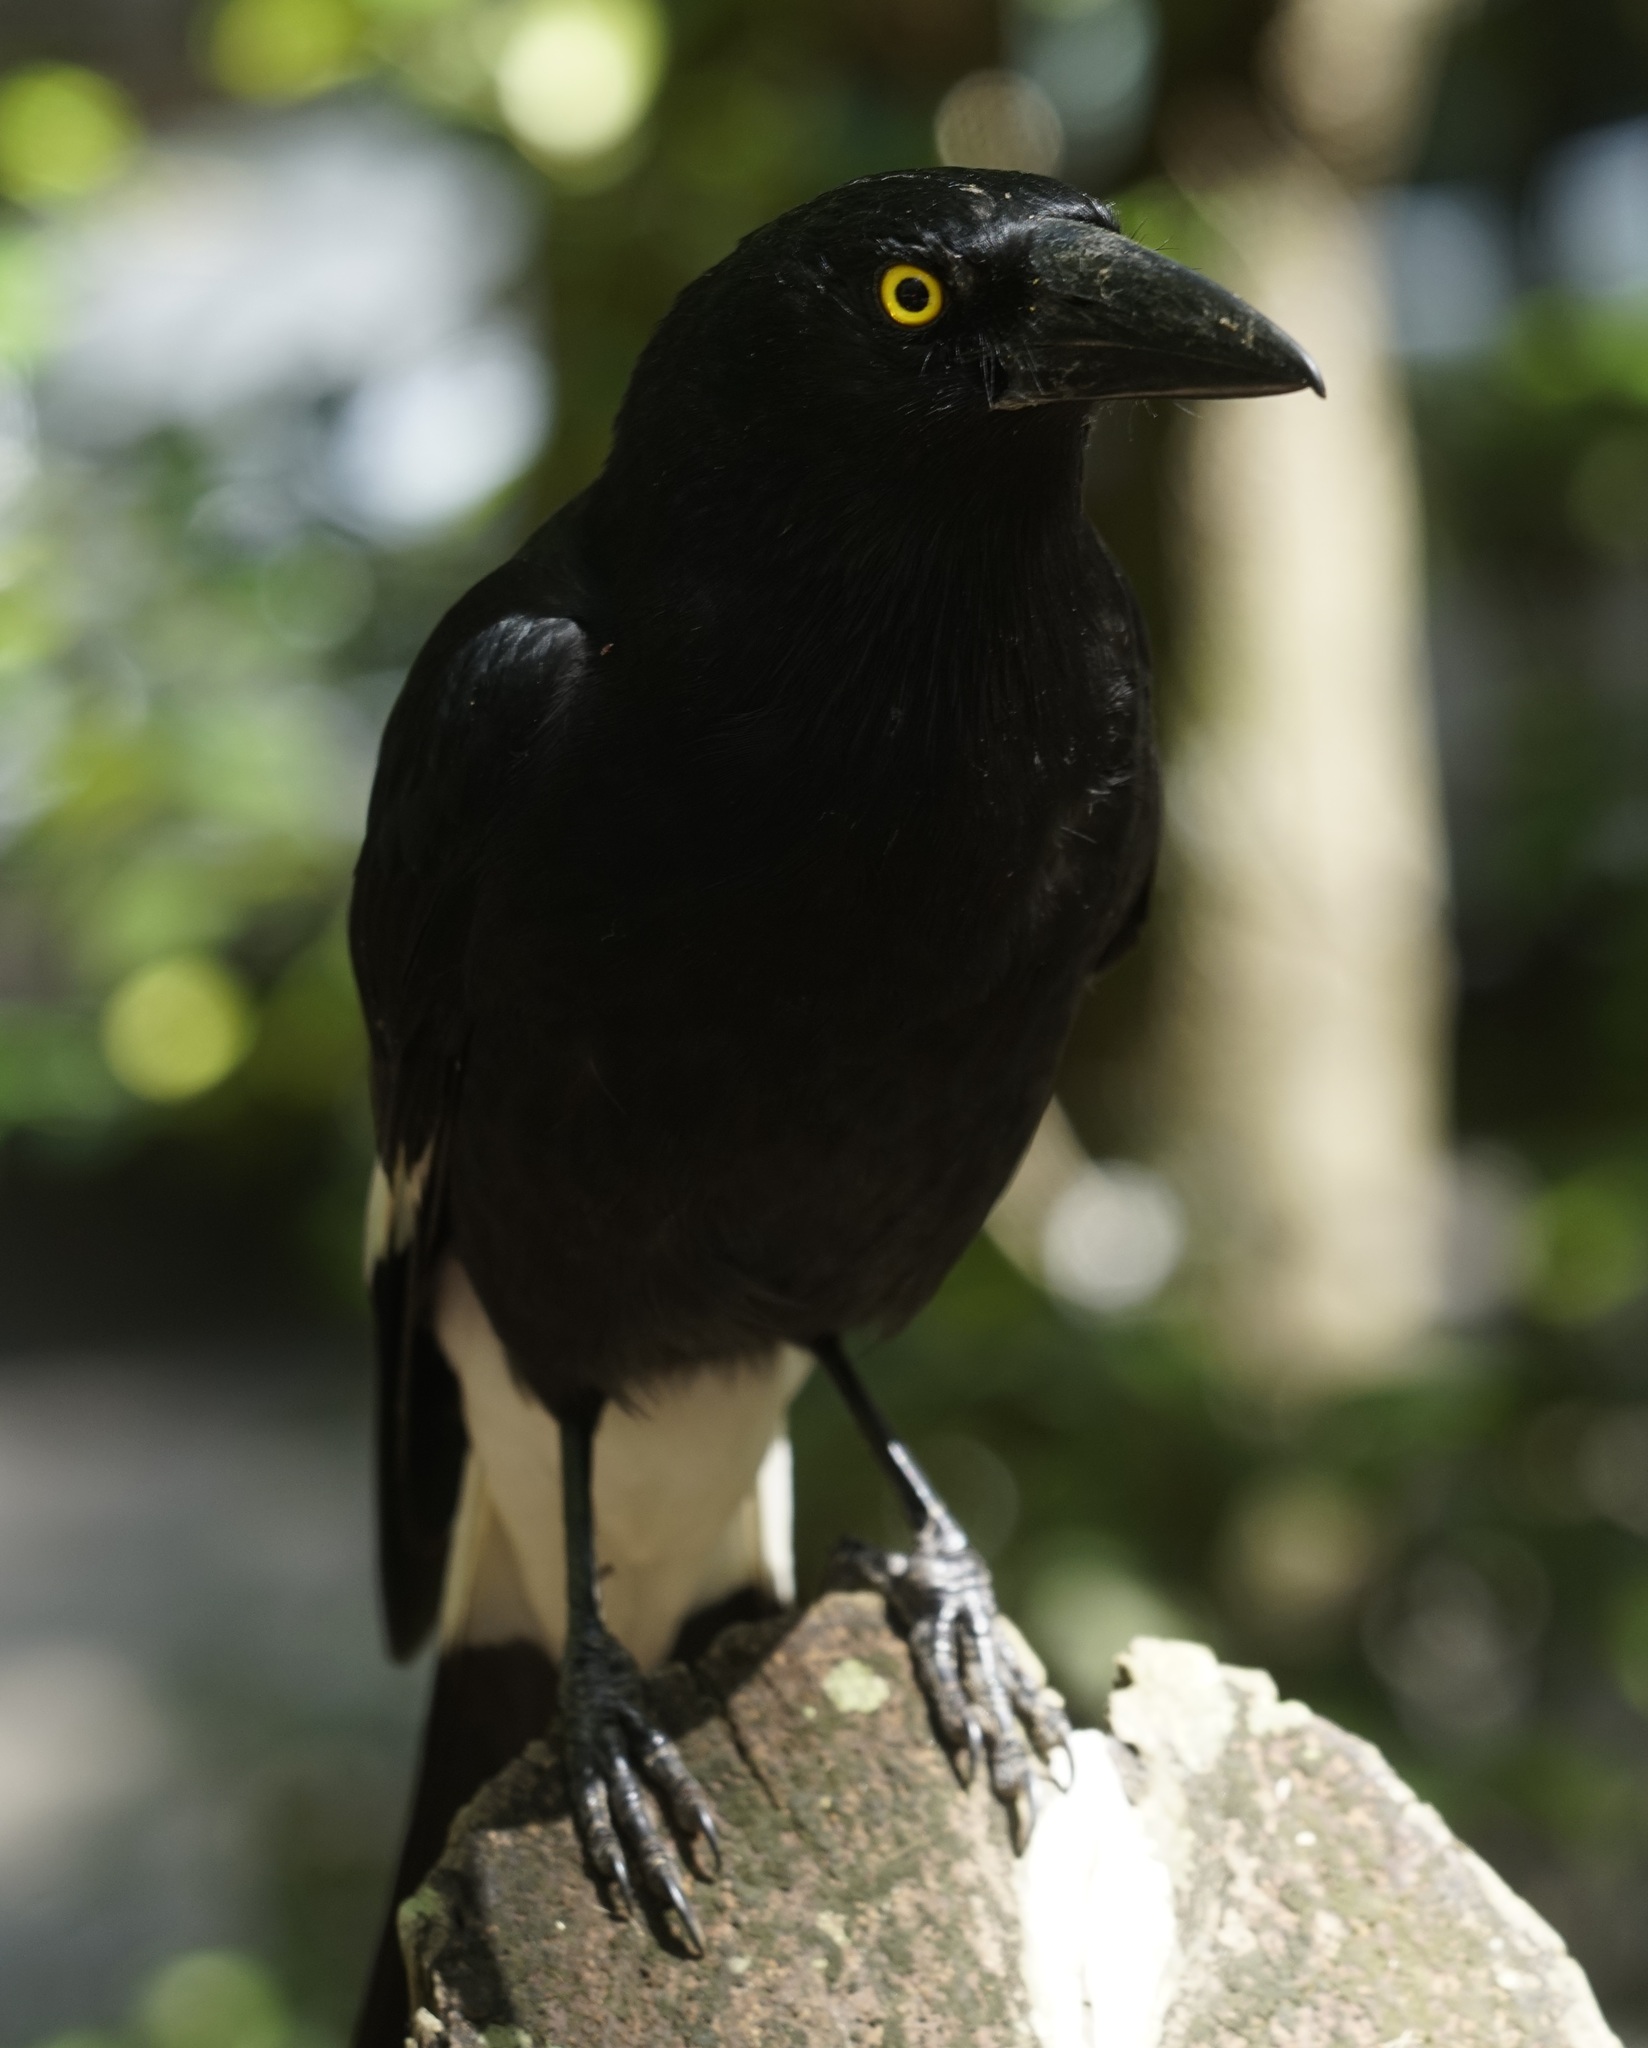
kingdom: Animalia
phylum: Chordata
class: Aves
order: Passeriformes
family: Cracticidae
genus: Strepera
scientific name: Strepera graculina
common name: Pied currawong
